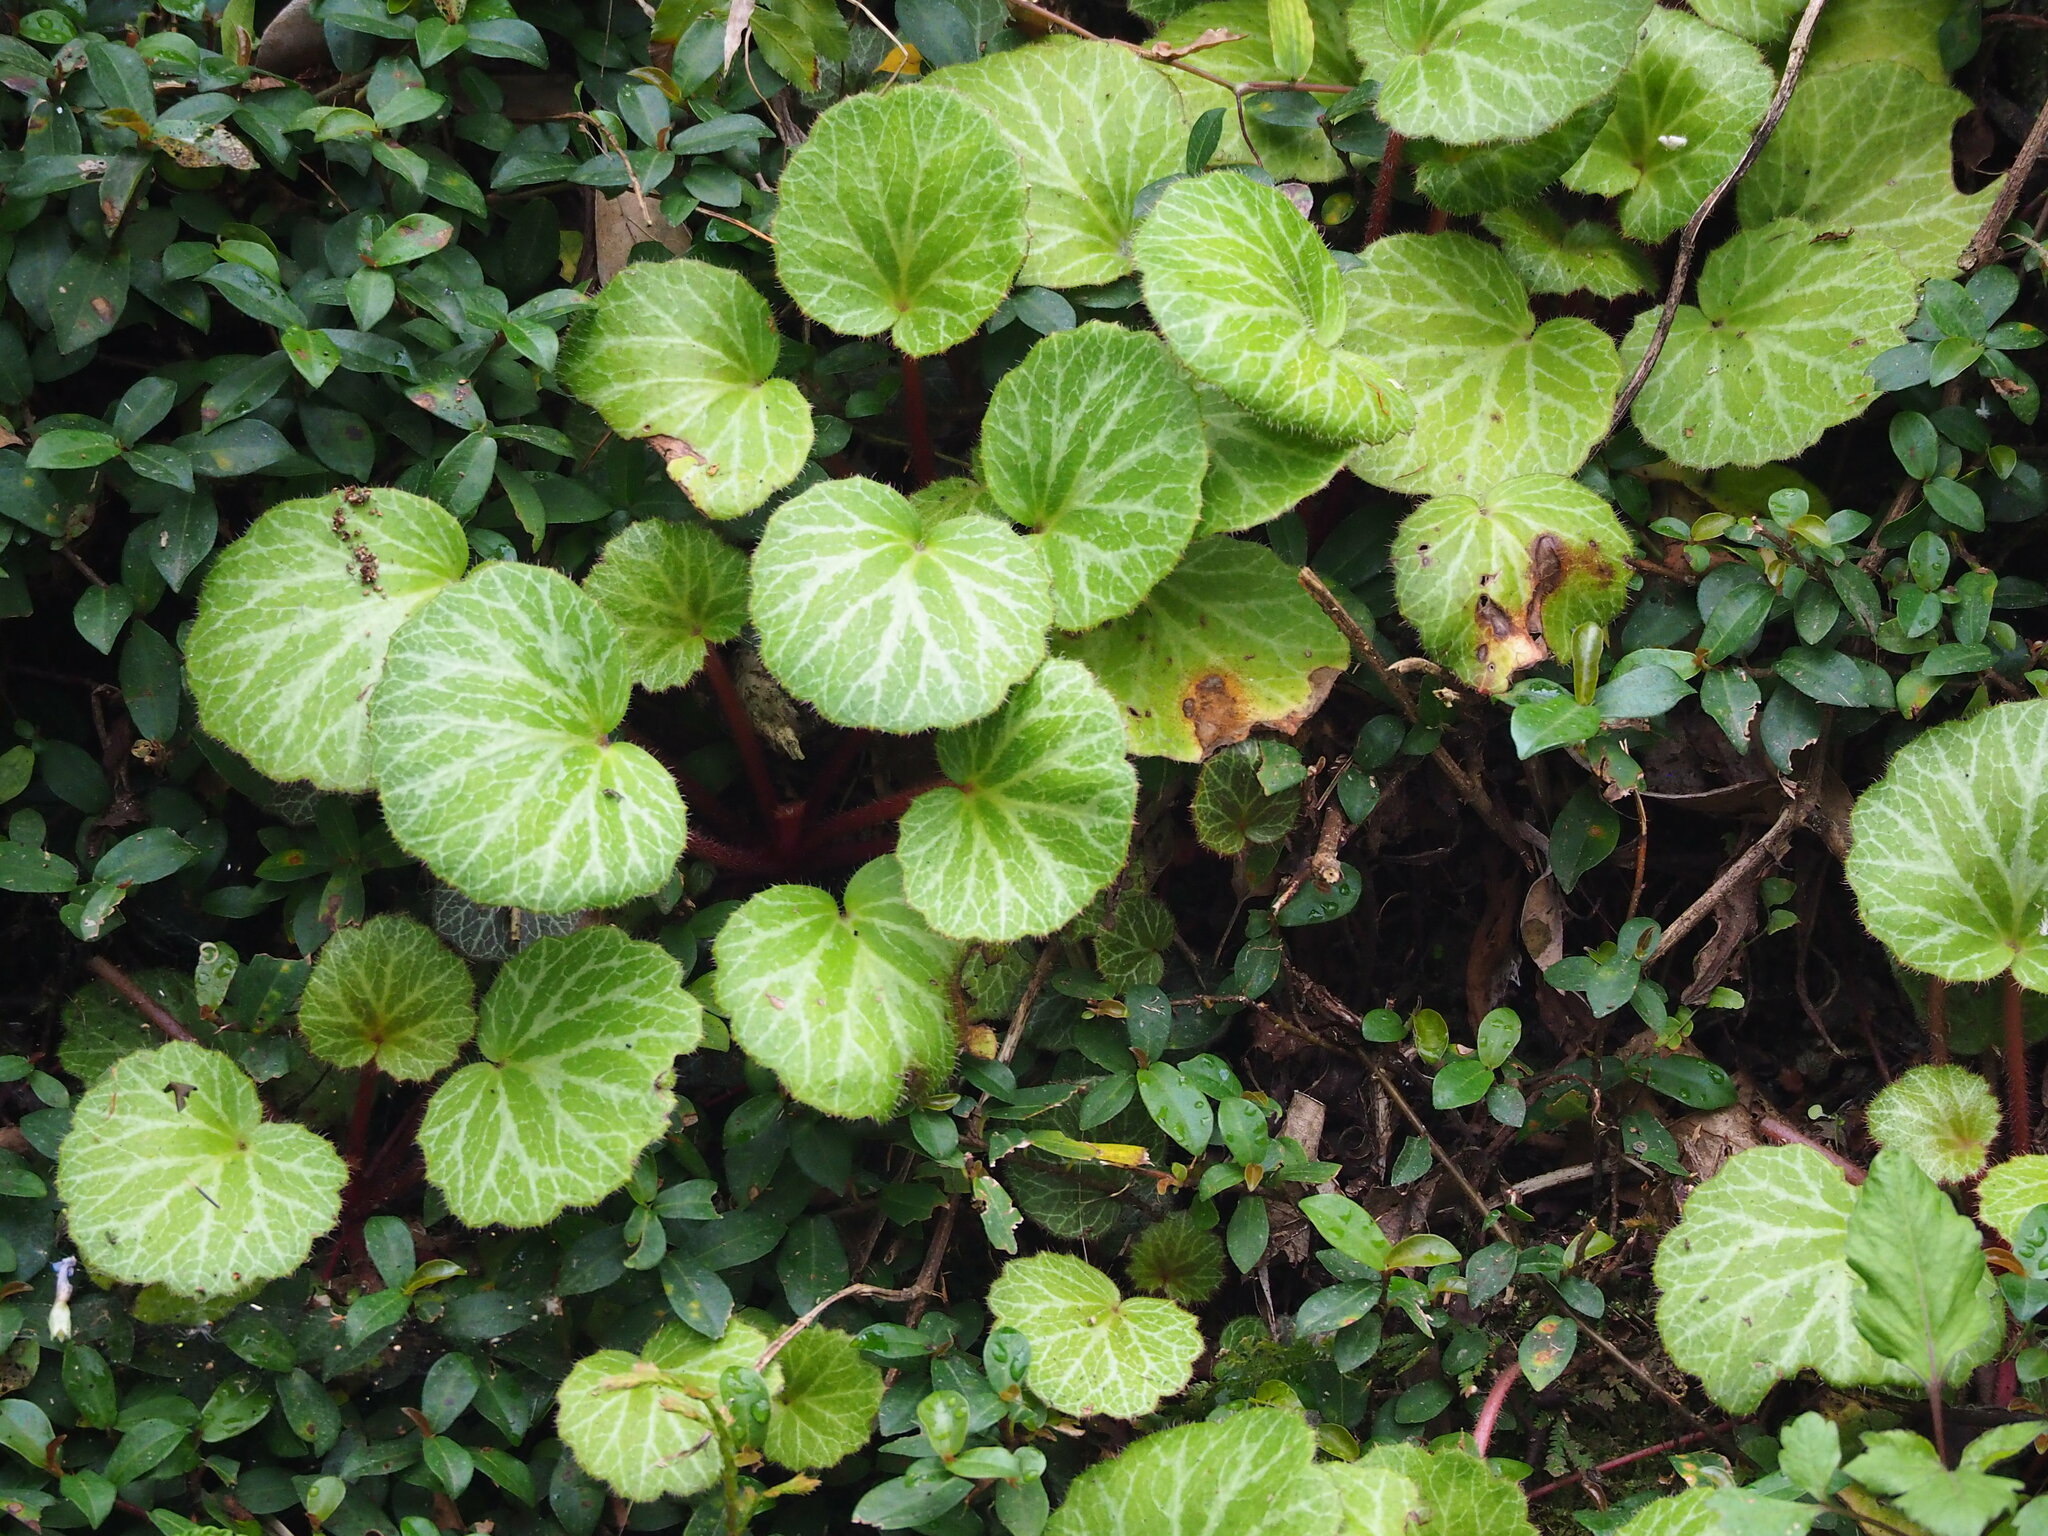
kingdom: Plantae
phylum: Tracheophyta
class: Magnoliopsida
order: Saxifragales
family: Saxifragaceae
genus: Saxifraga
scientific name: Saxifraga stolonifera
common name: Creeping saxifrage
